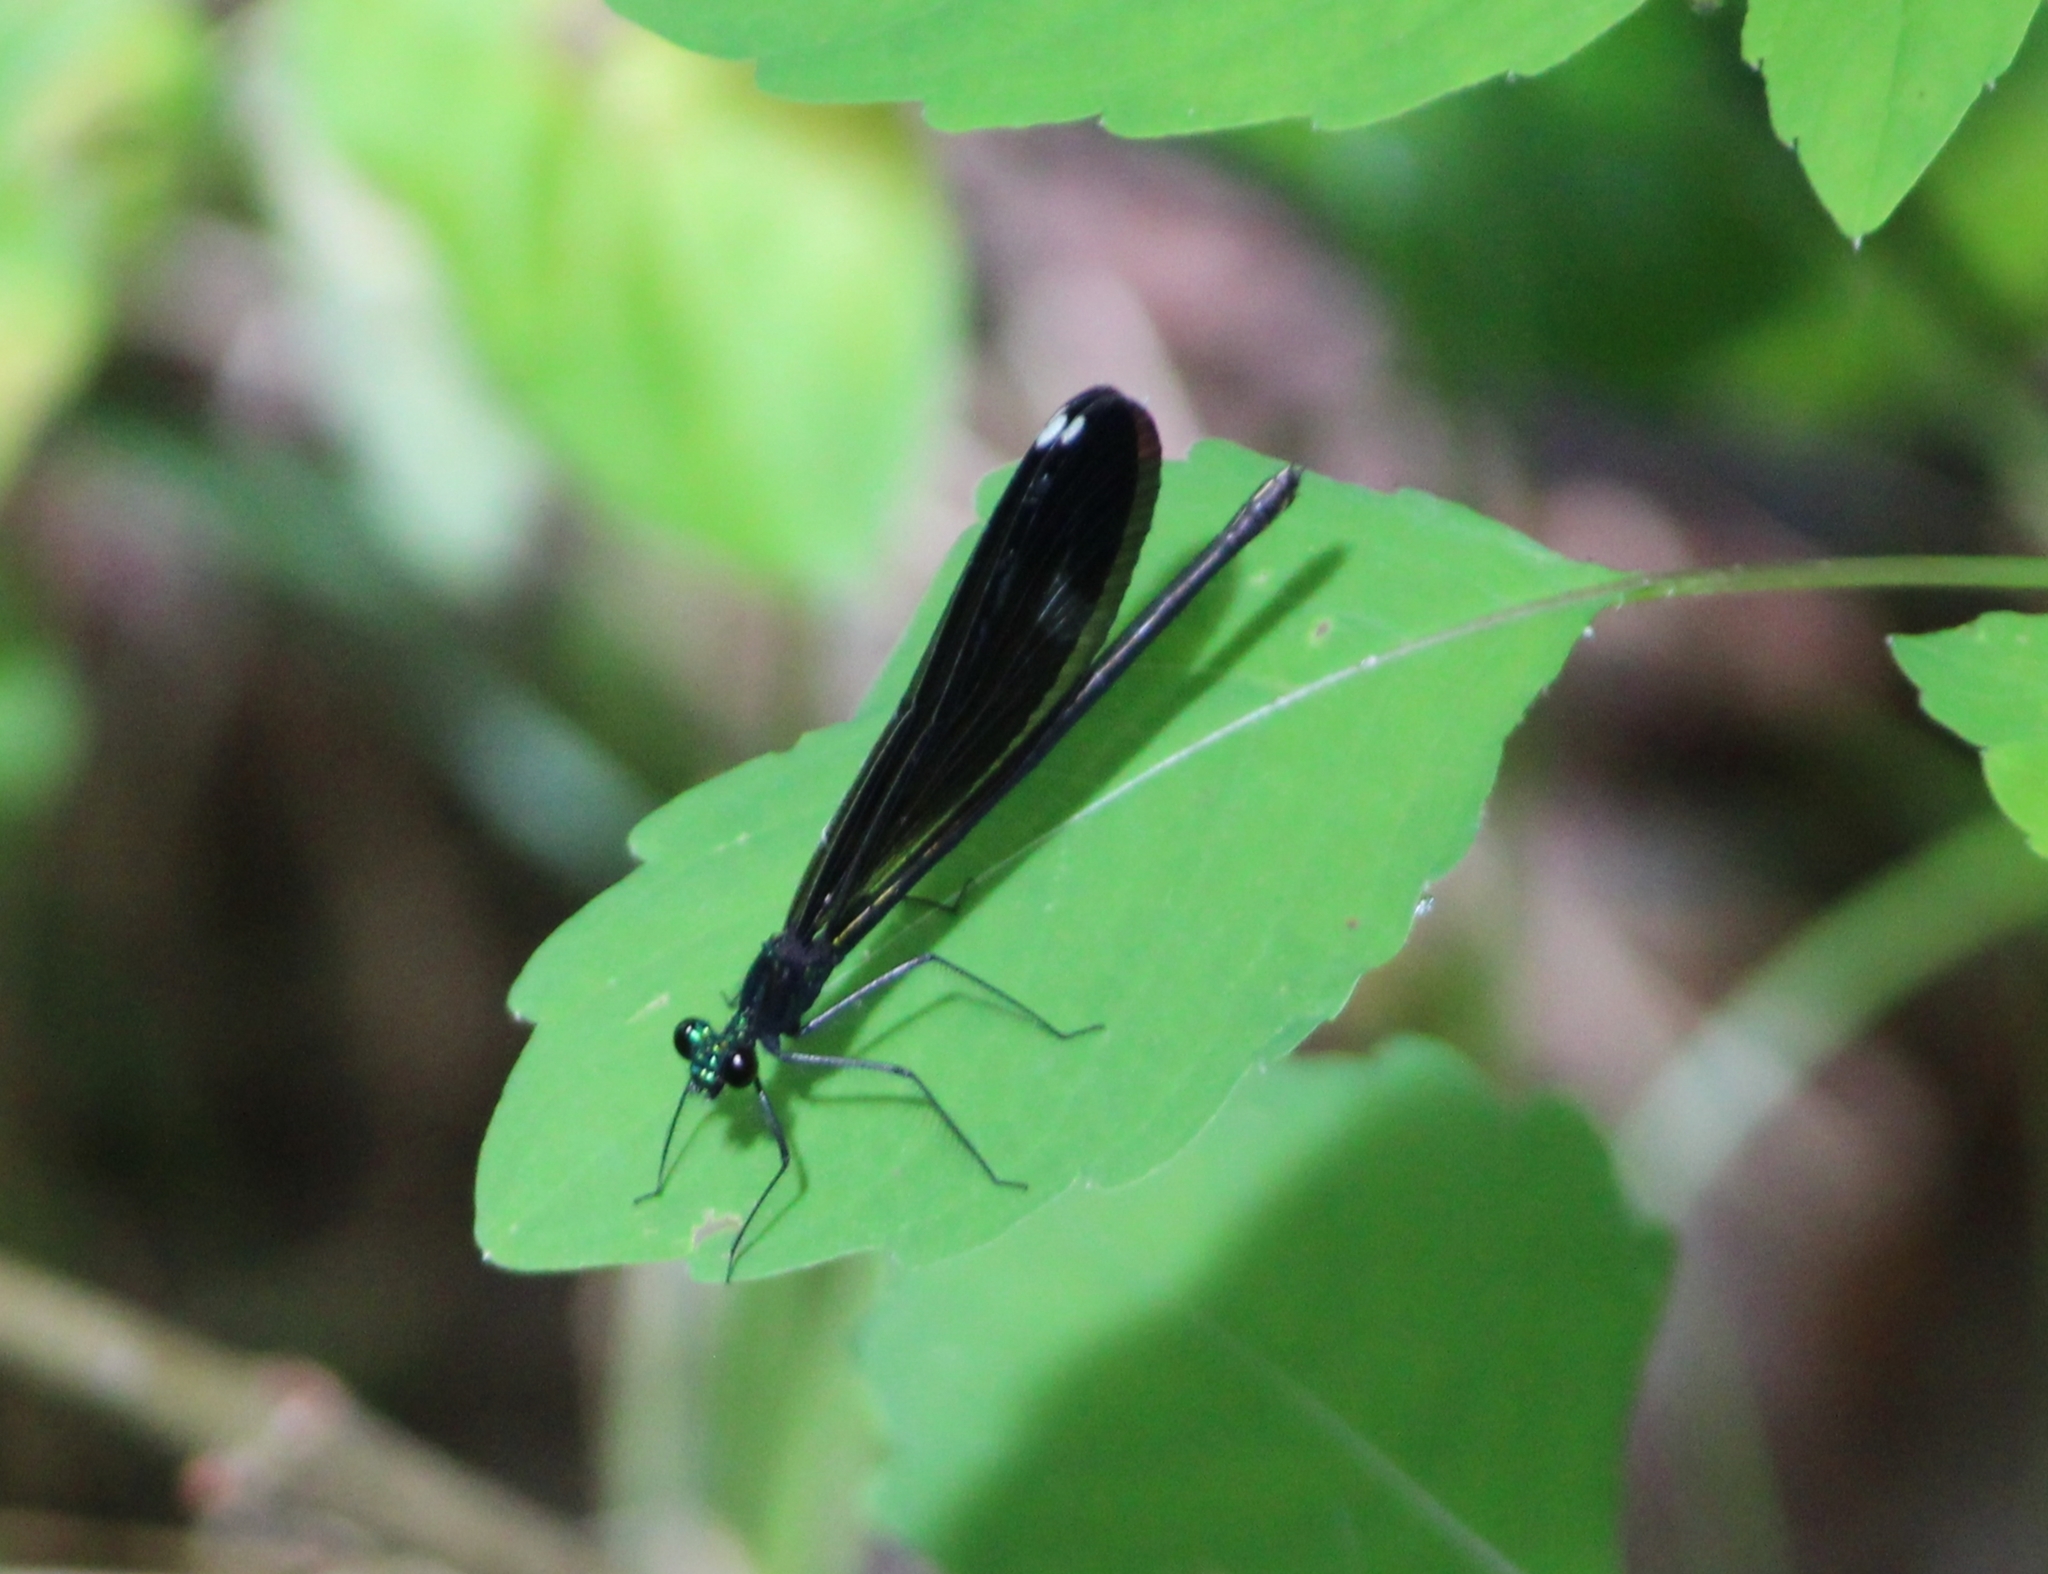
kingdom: Animalia
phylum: Arthropoda
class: Insecta
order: Odonata
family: Calopterygidae
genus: Calopteryx
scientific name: Calopteryx maculata
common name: Ebony jewelwing
